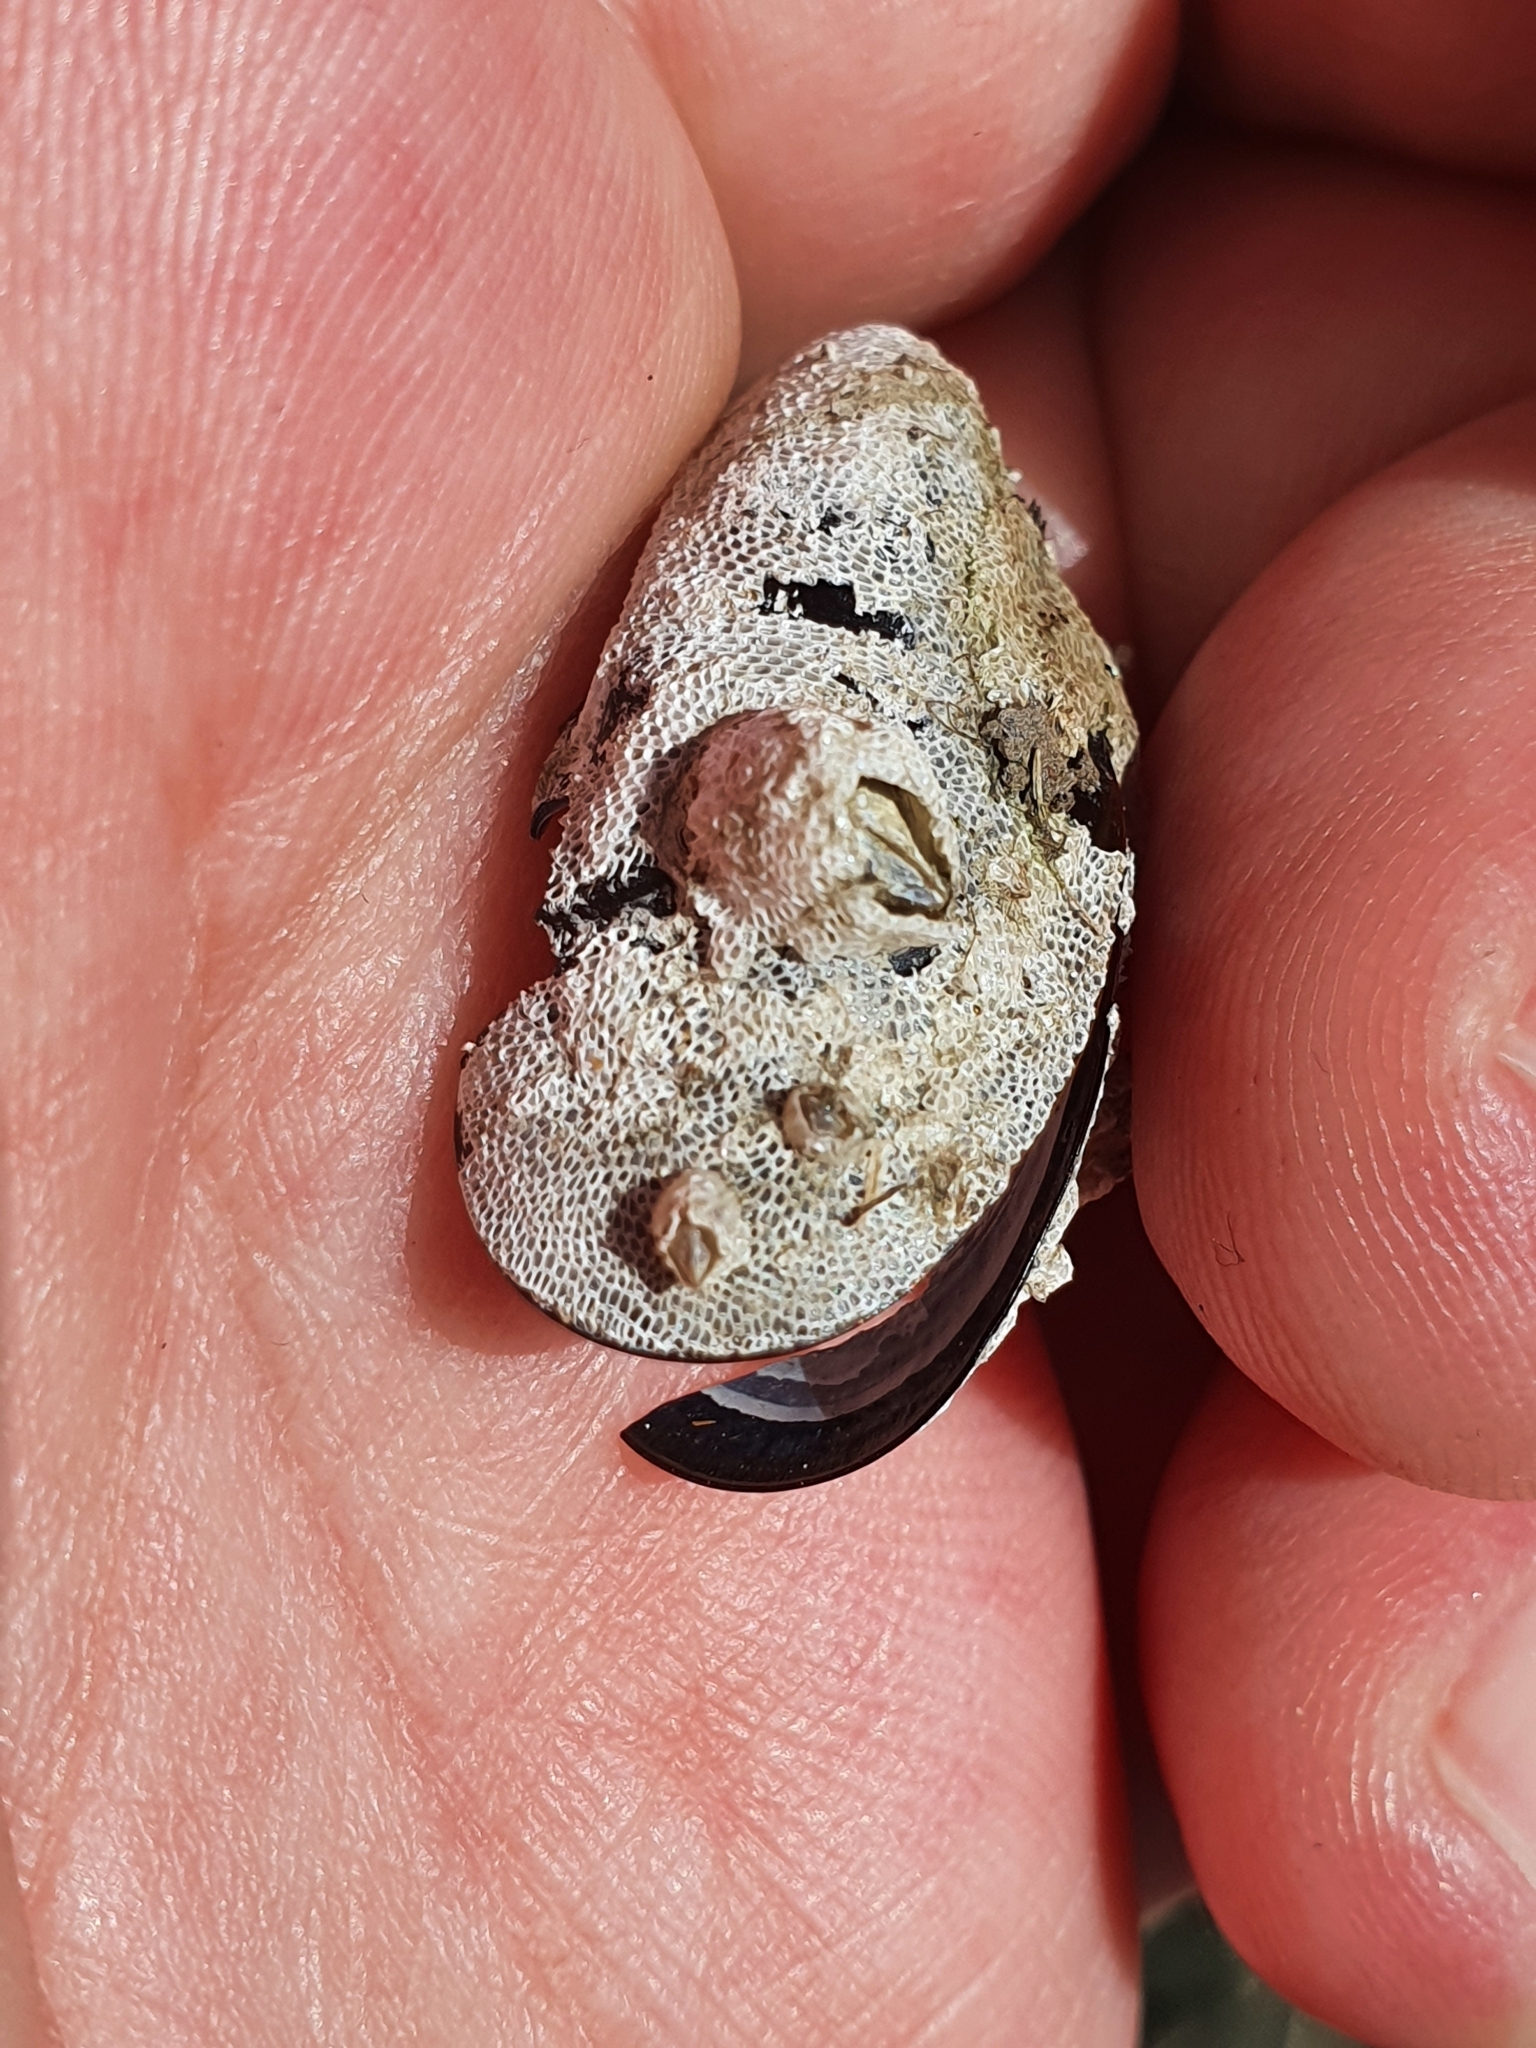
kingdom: Animalia
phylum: Arthropoda
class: Maxillopoda
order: Sessilia
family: Balanidae
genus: Amphibalanus
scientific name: Amphibalanus improvisus
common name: Bay barnacle
